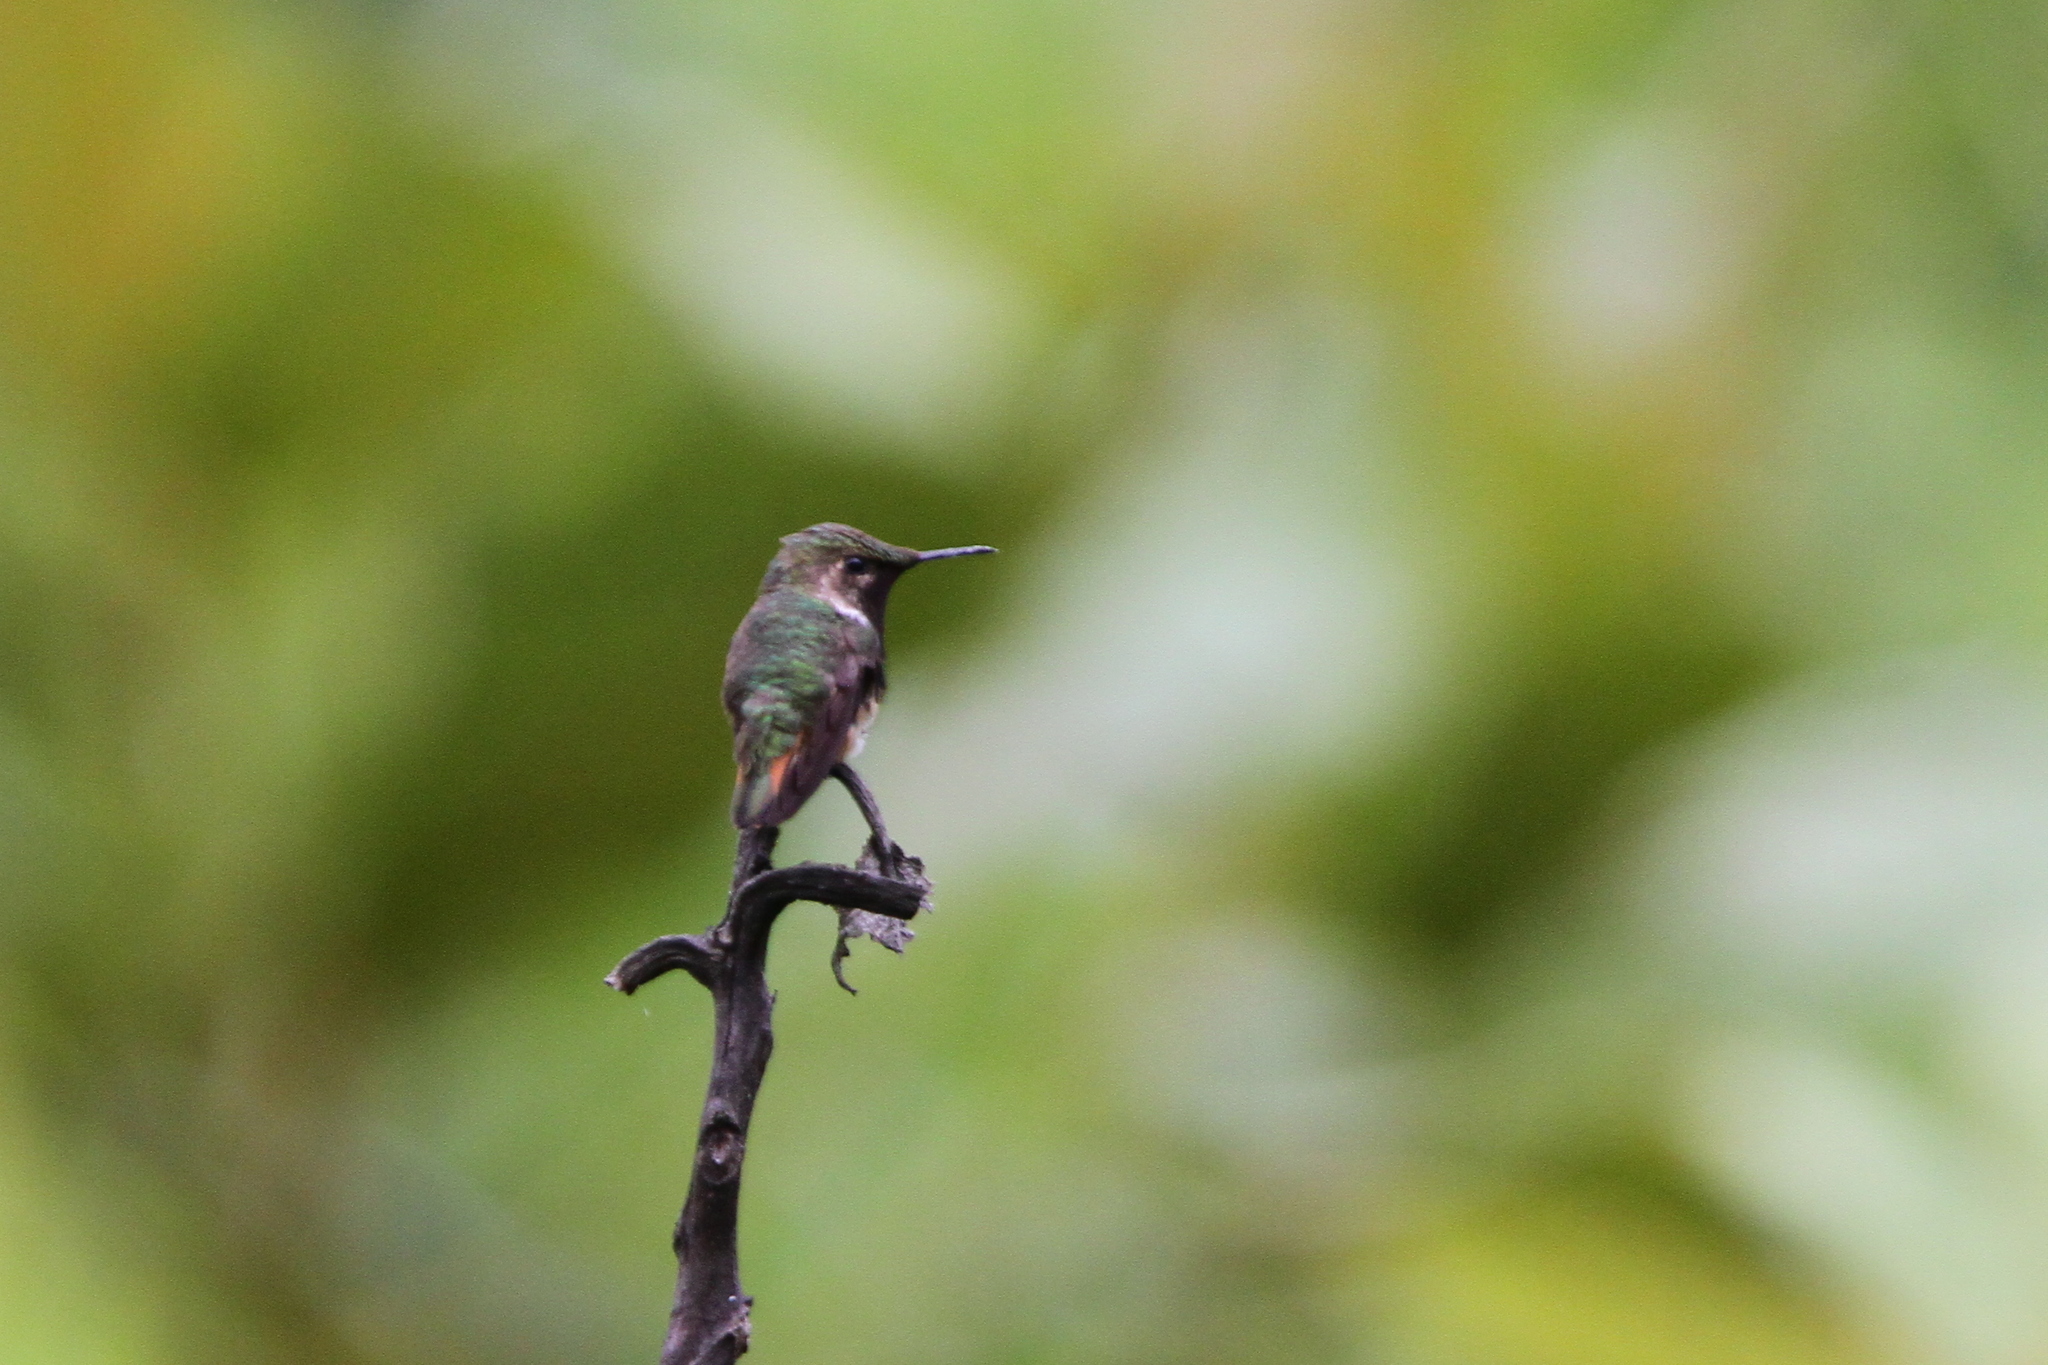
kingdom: Animalia
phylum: Chordata
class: Aves
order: Apodiformes
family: Trochilidae
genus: Selasphorus
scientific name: Selasphorus ellioti
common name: Wine-throated hummingbird
